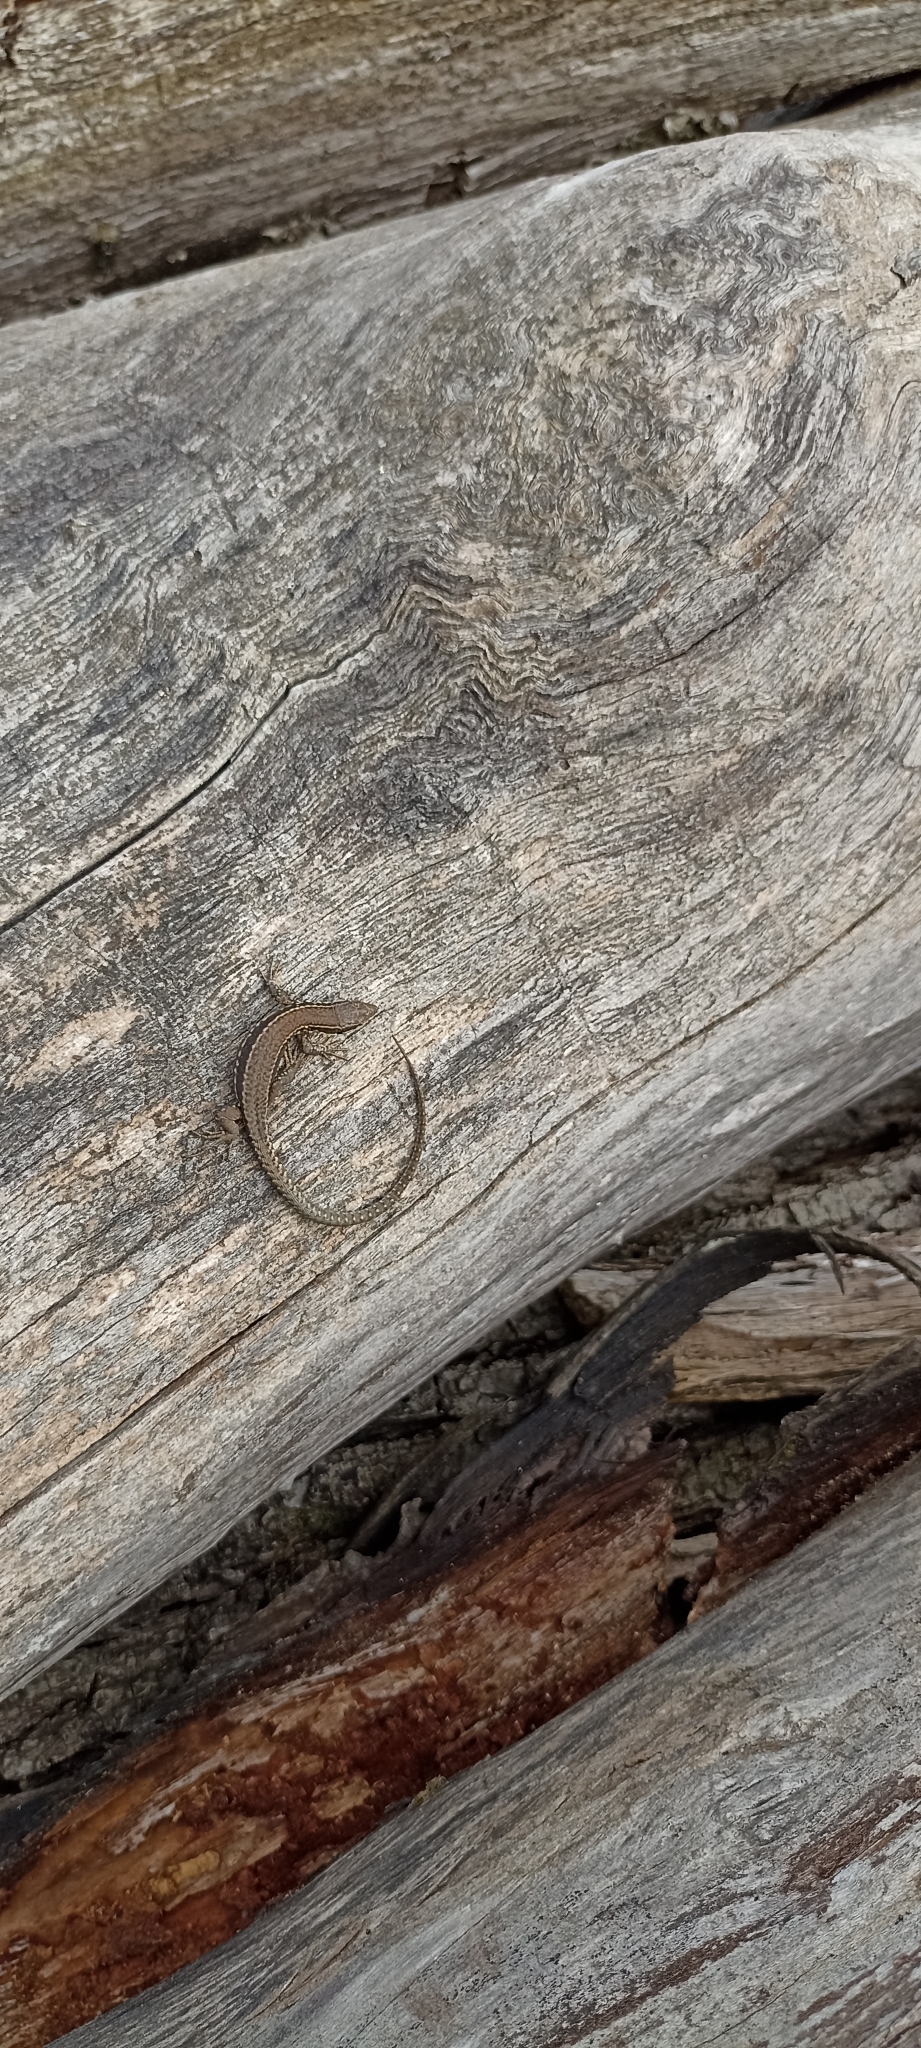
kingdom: Animalia
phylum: Chordata
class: Squamata
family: Lacertidae
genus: Podarcis
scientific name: Podarcis muralis
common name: Common wall lizard
